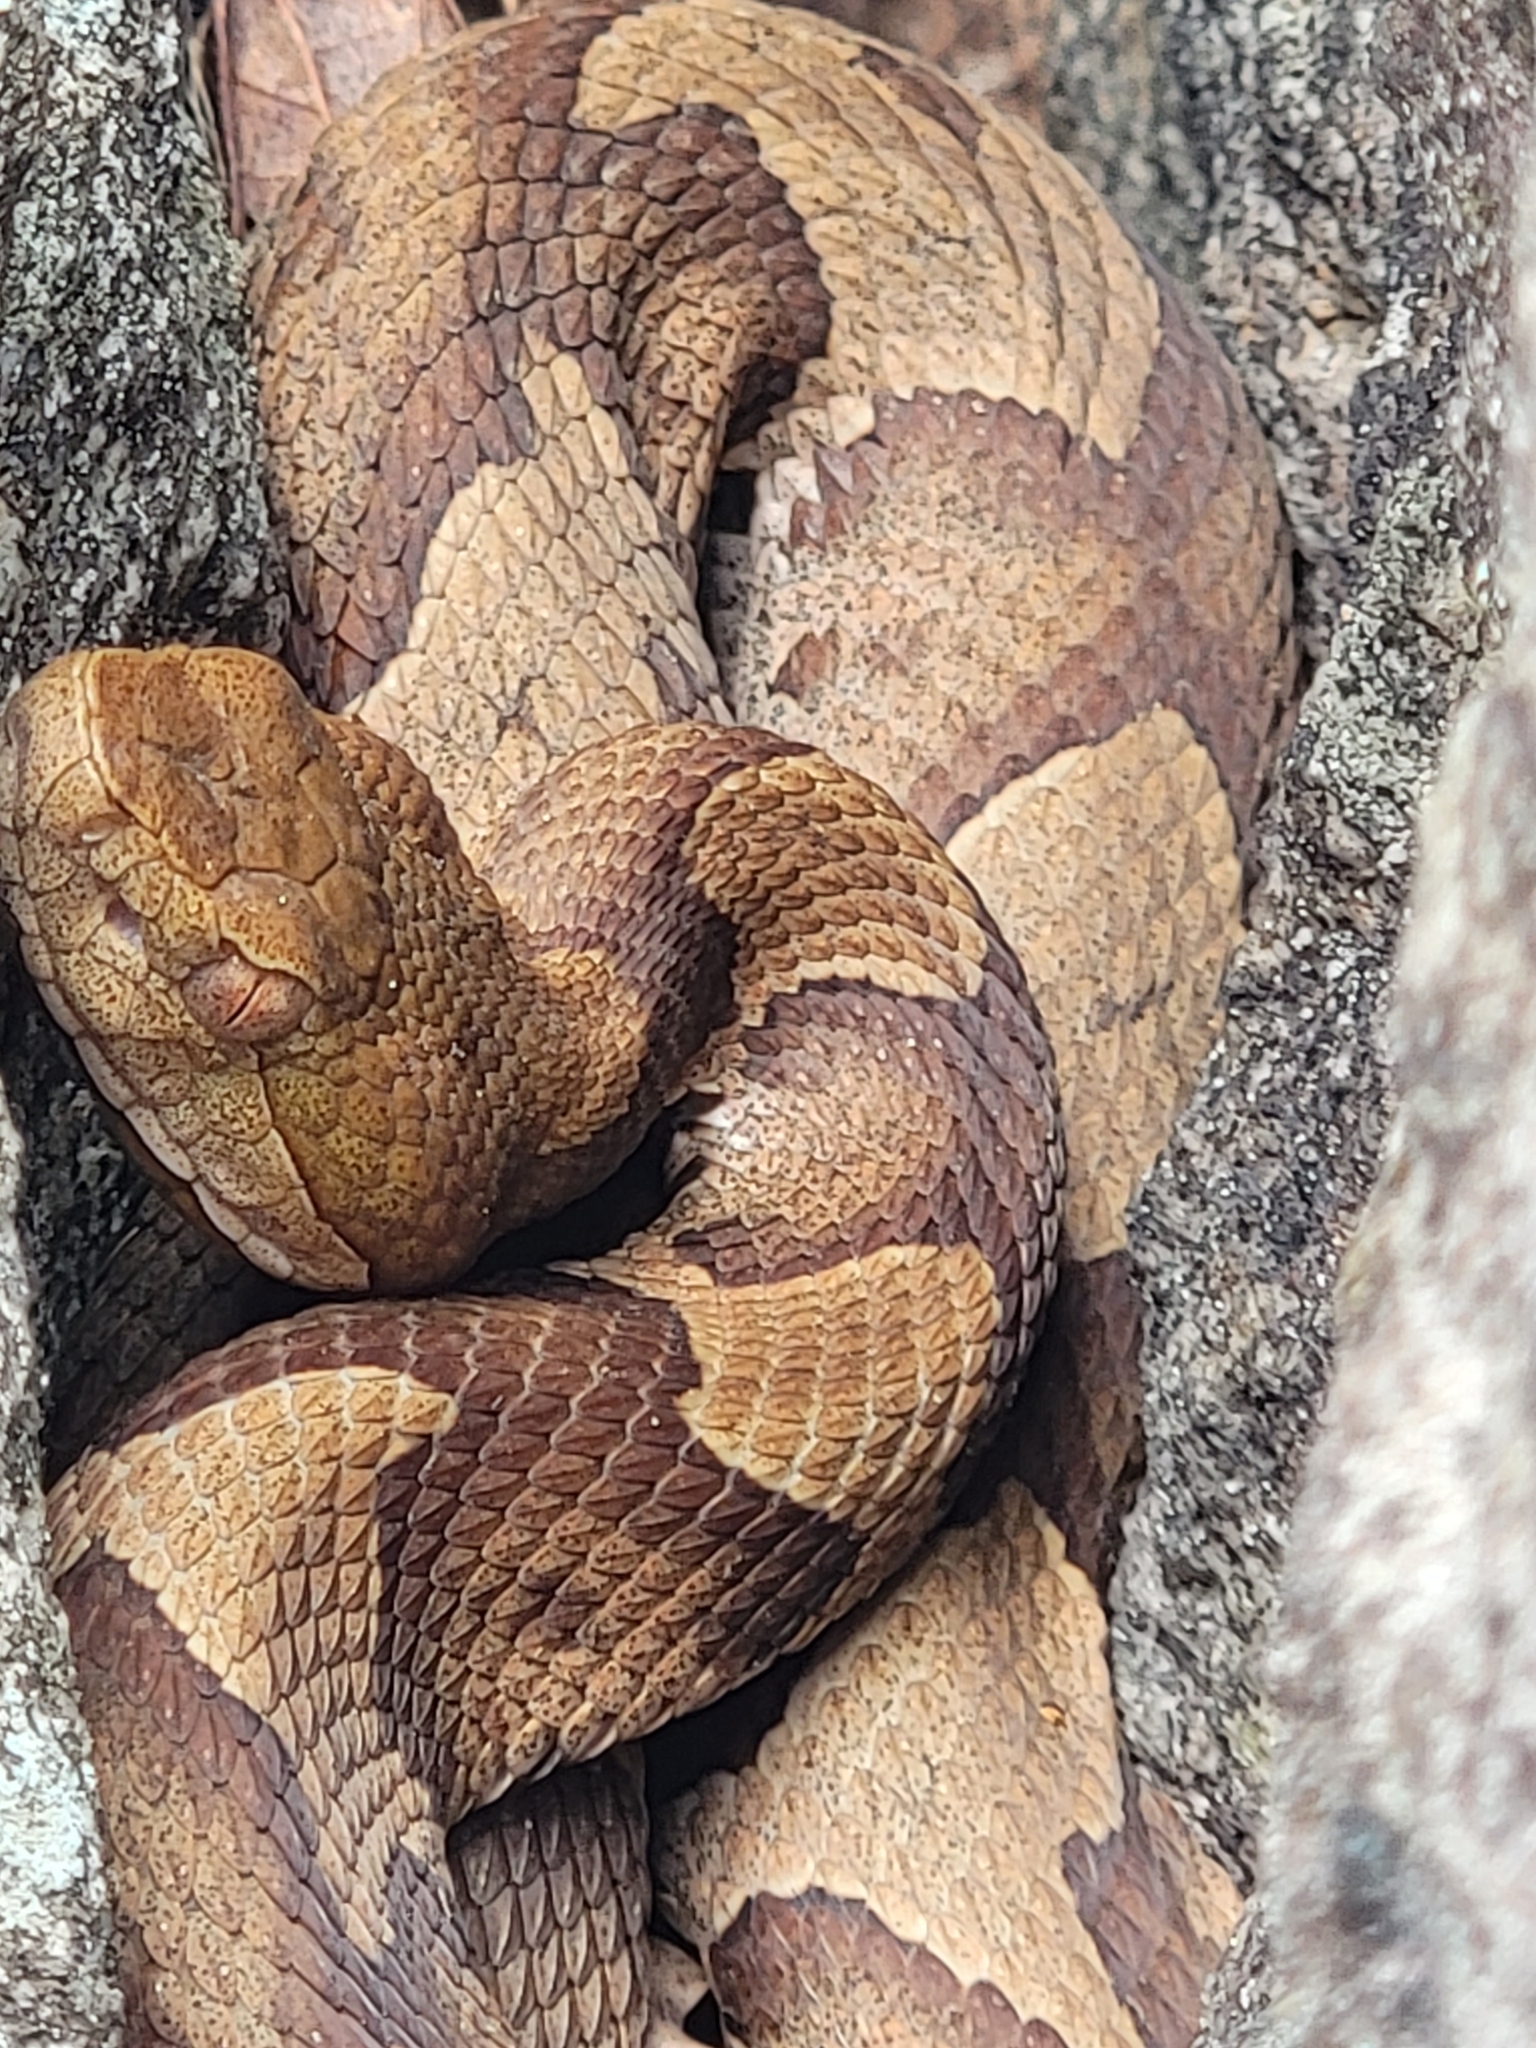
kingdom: Animalia
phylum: Chordata
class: Squamata
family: Viperidae
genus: Agkistrodon
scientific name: Agkistrodon contortrix
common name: Northern copperhead
